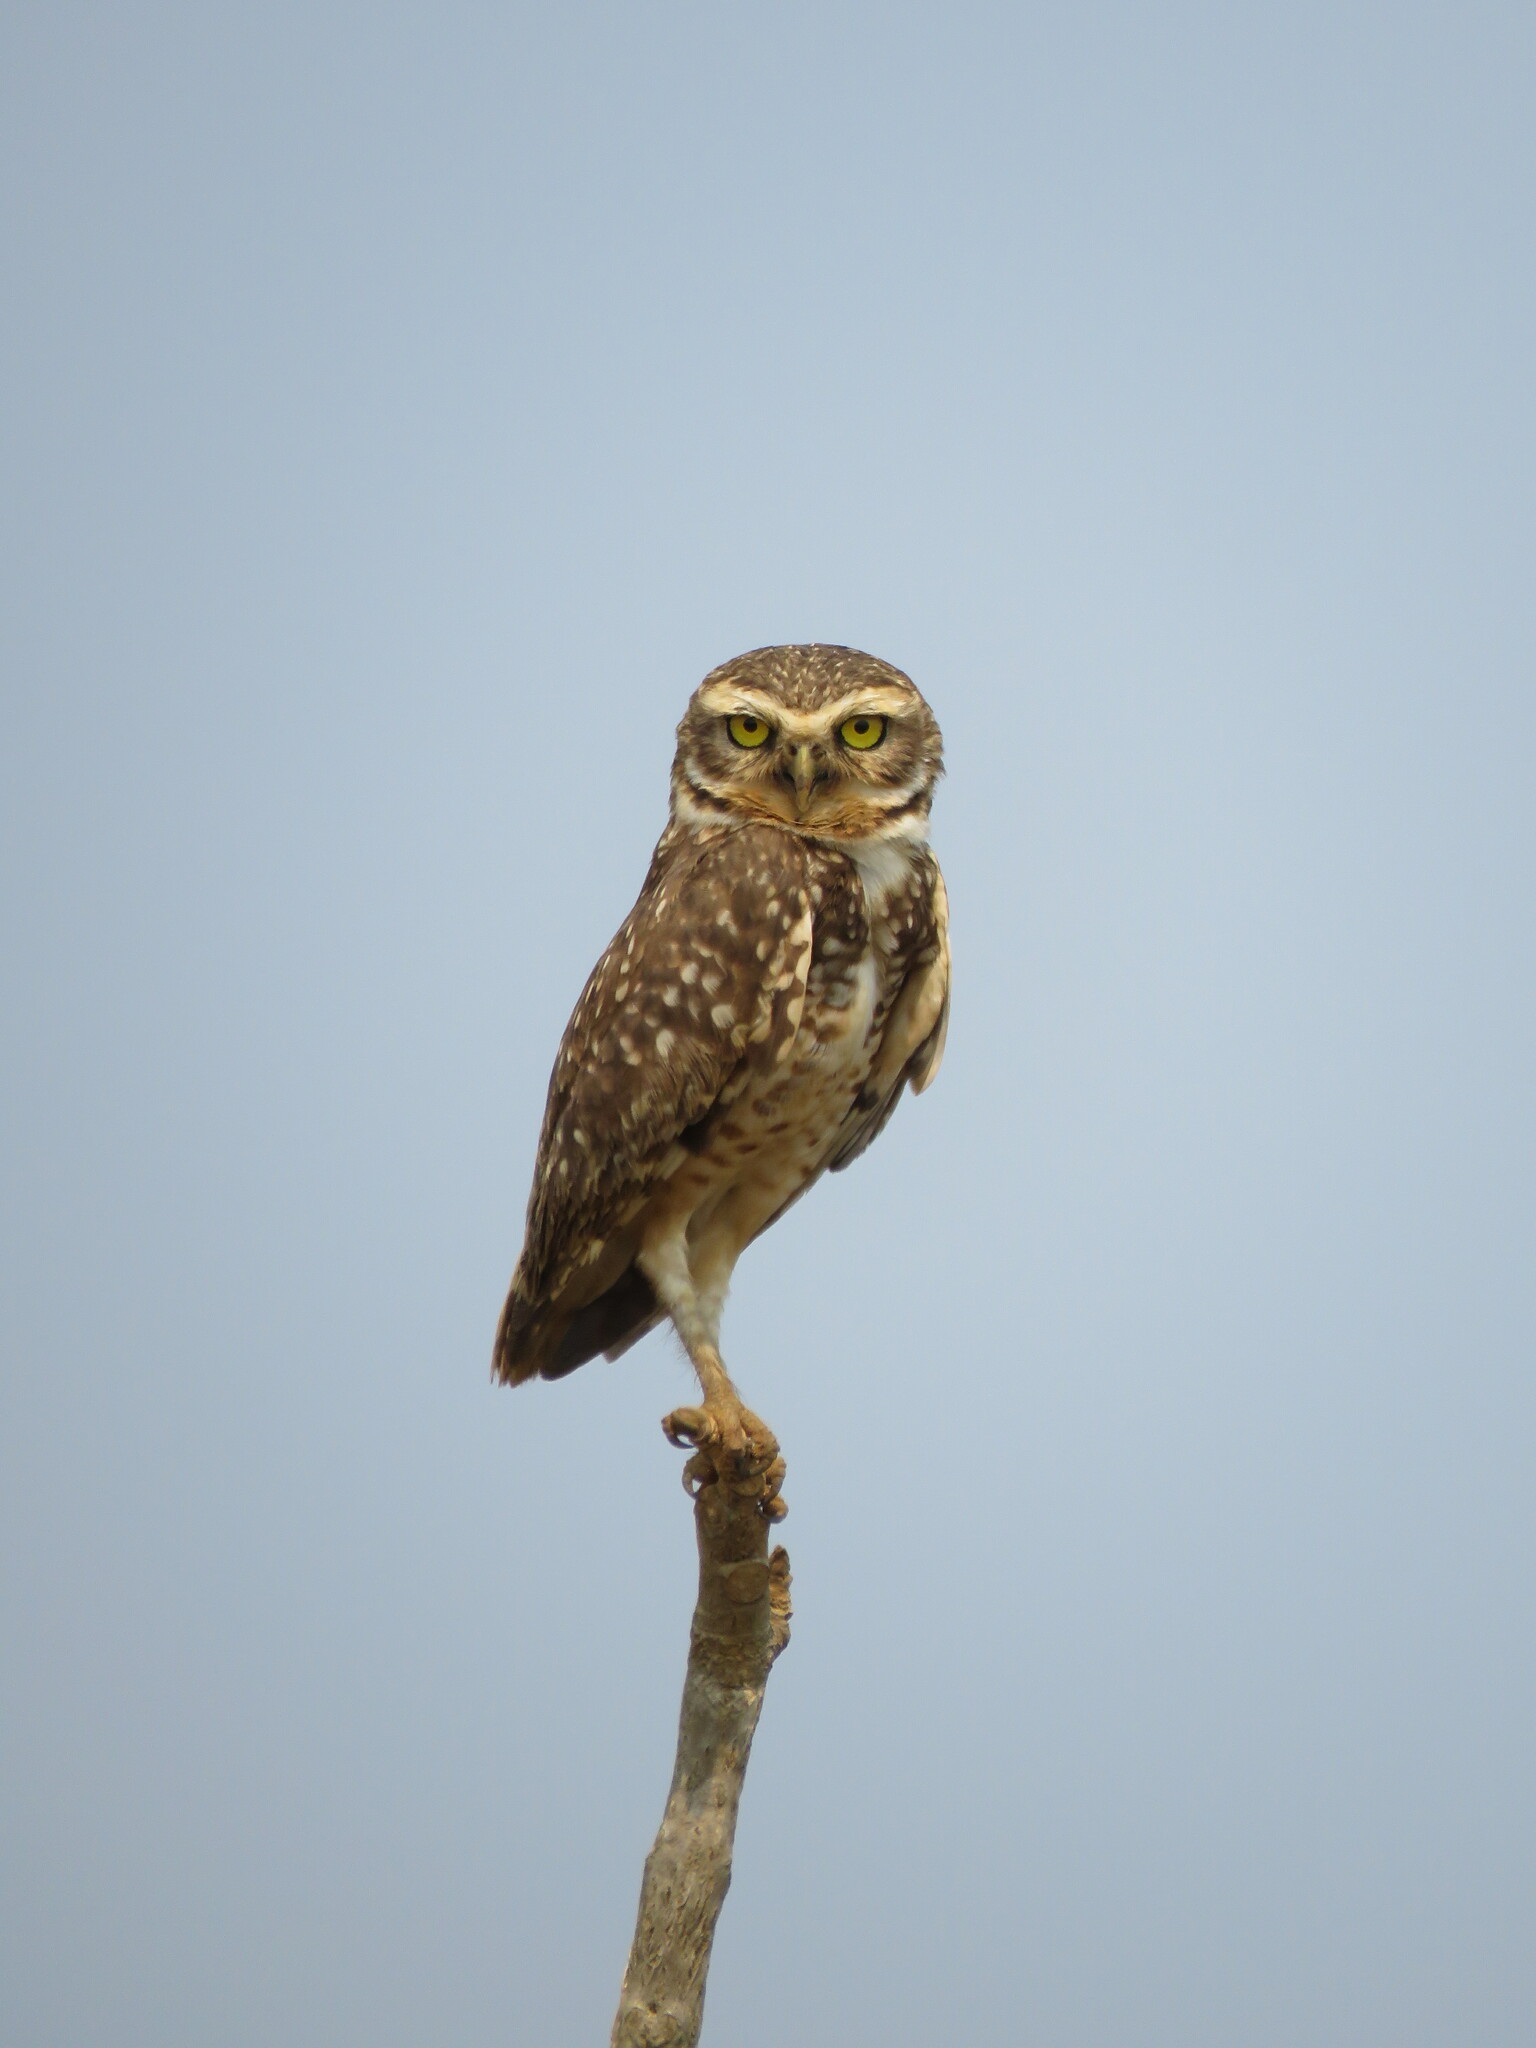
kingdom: Animalia
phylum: Chordata
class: Aves
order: Strigiformes
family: Strigidae
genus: Athene
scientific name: Athene cunicularia
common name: Burrowing owl
